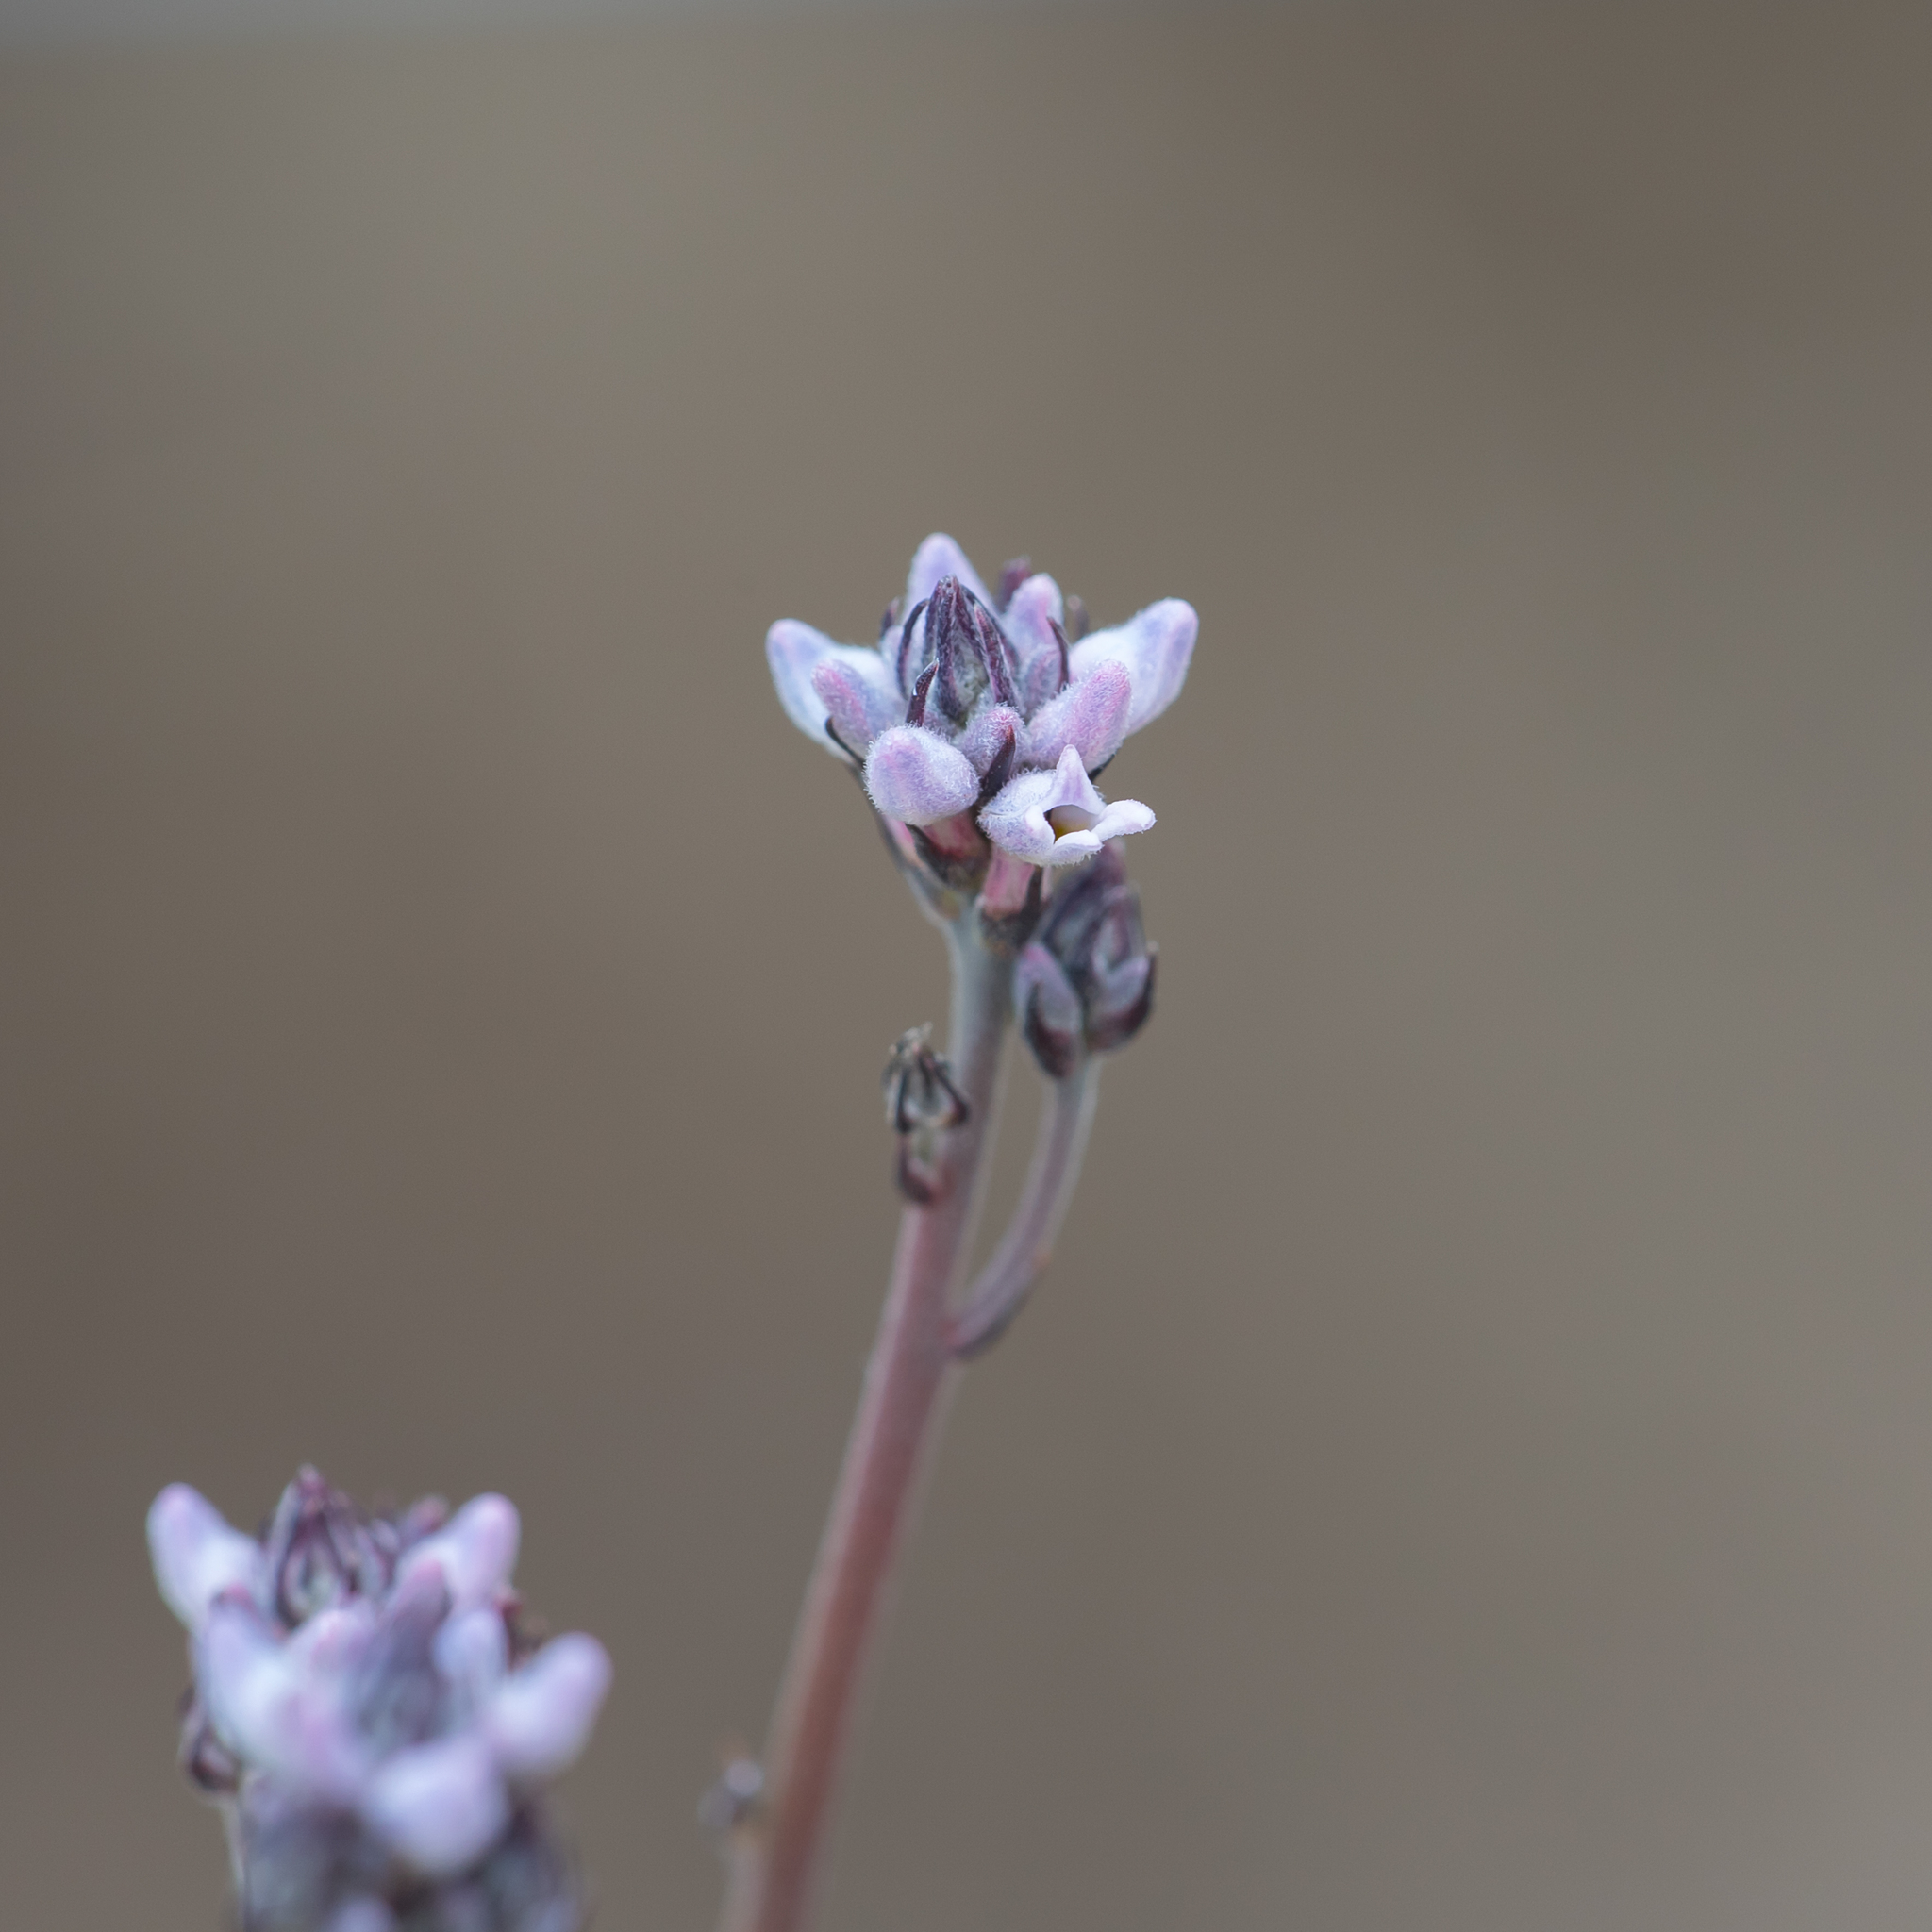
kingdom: Plantae
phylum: Tracheophyta
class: Magnoliopsida
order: Proteales
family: Proteaceae
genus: Conospermum
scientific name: Conospermum patens
